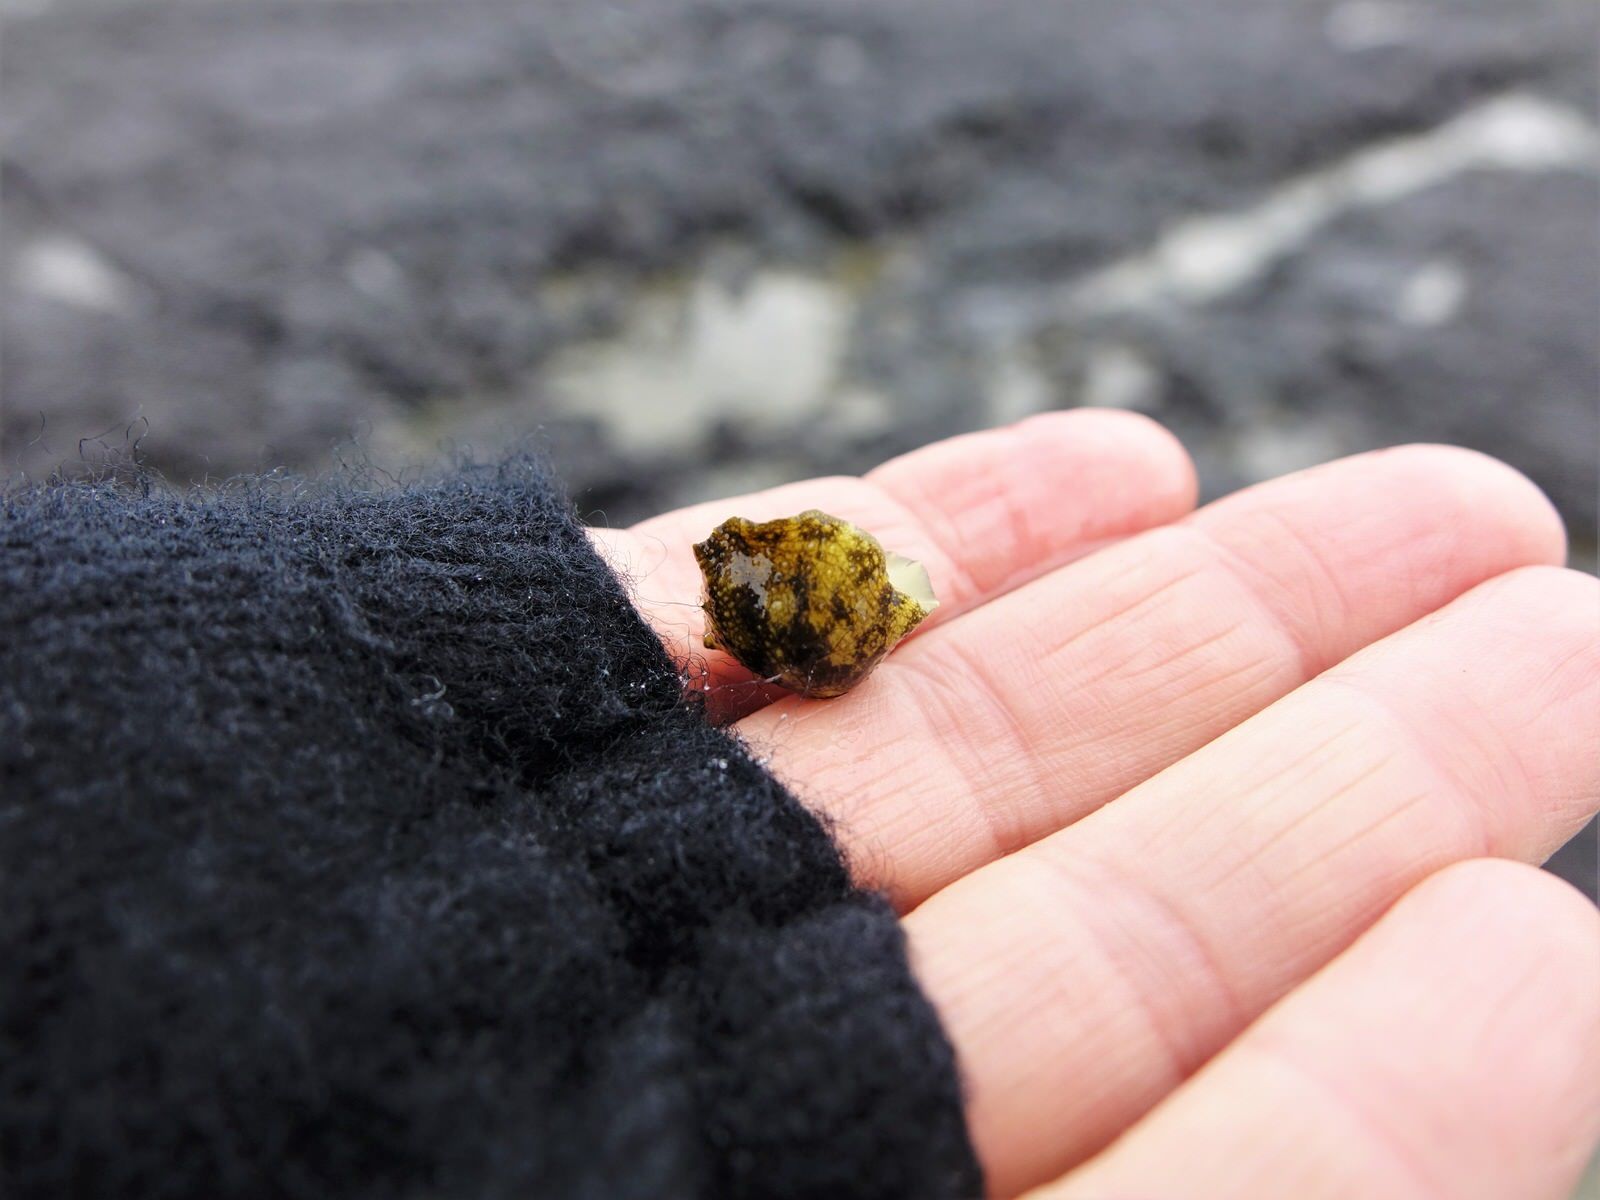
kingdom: Animalia
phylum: Mollusca
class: Gastropoda
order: Systellommatophora
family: Onchidiidae
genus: Onchidella
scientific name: Onchidella nigricans
